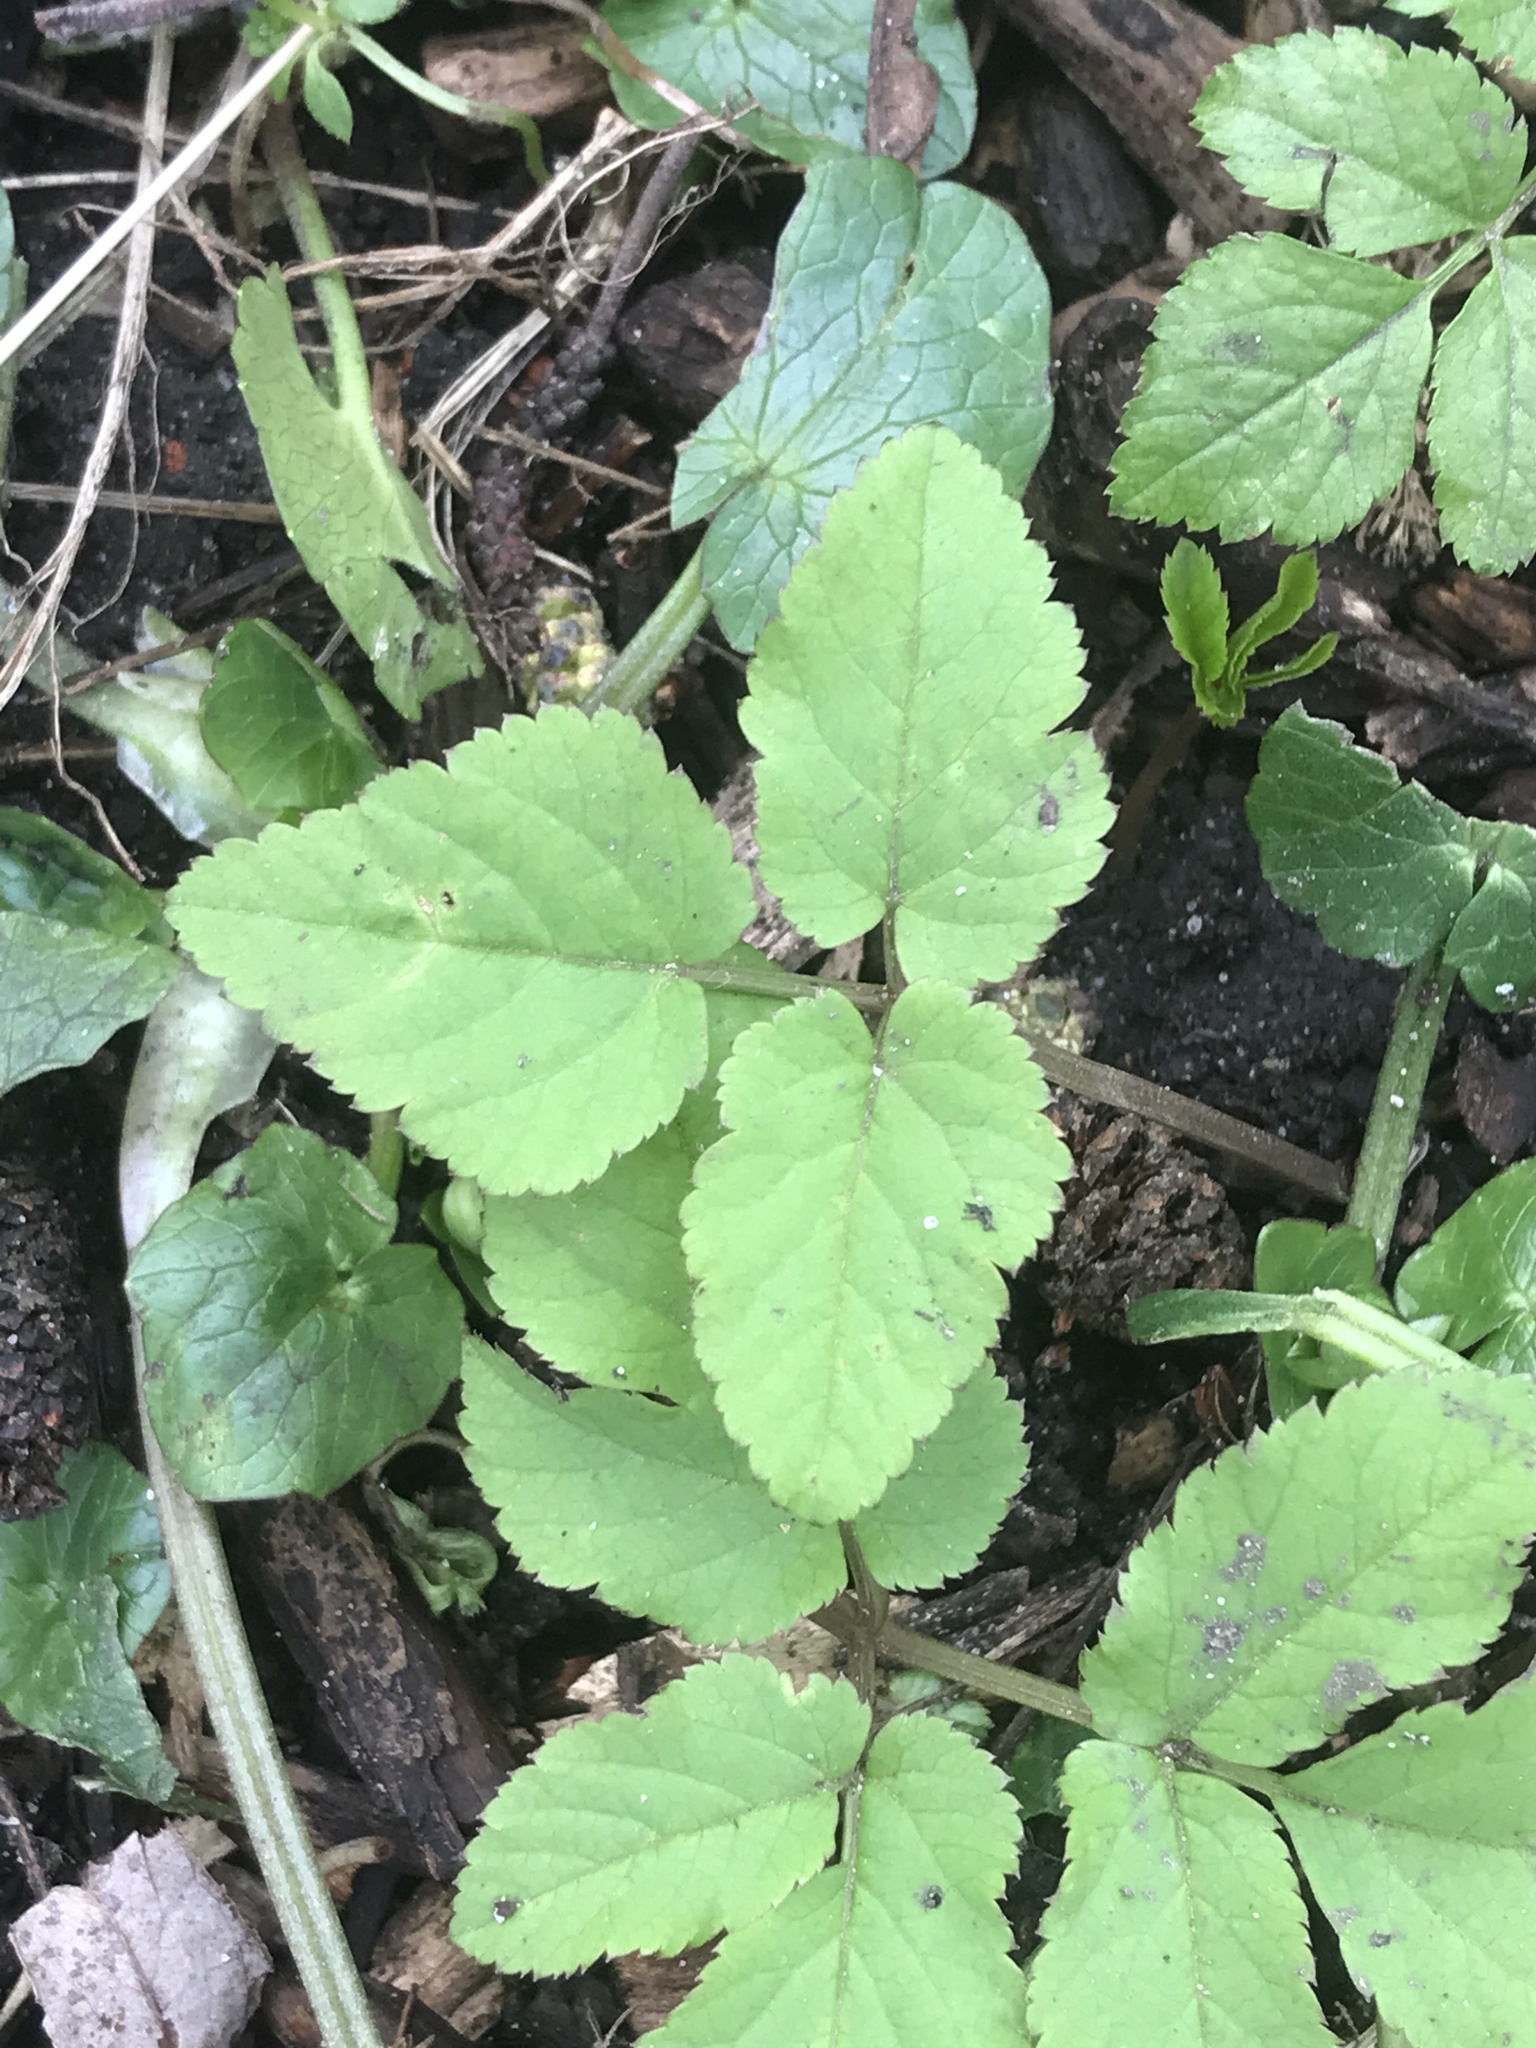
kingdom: Plantae
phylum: Tracheophyta
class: Magnoliopsida
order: Apiales
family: Apiaceae
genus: Aegopodium
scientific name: Aegopodium podagraria
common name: Ground-elder
